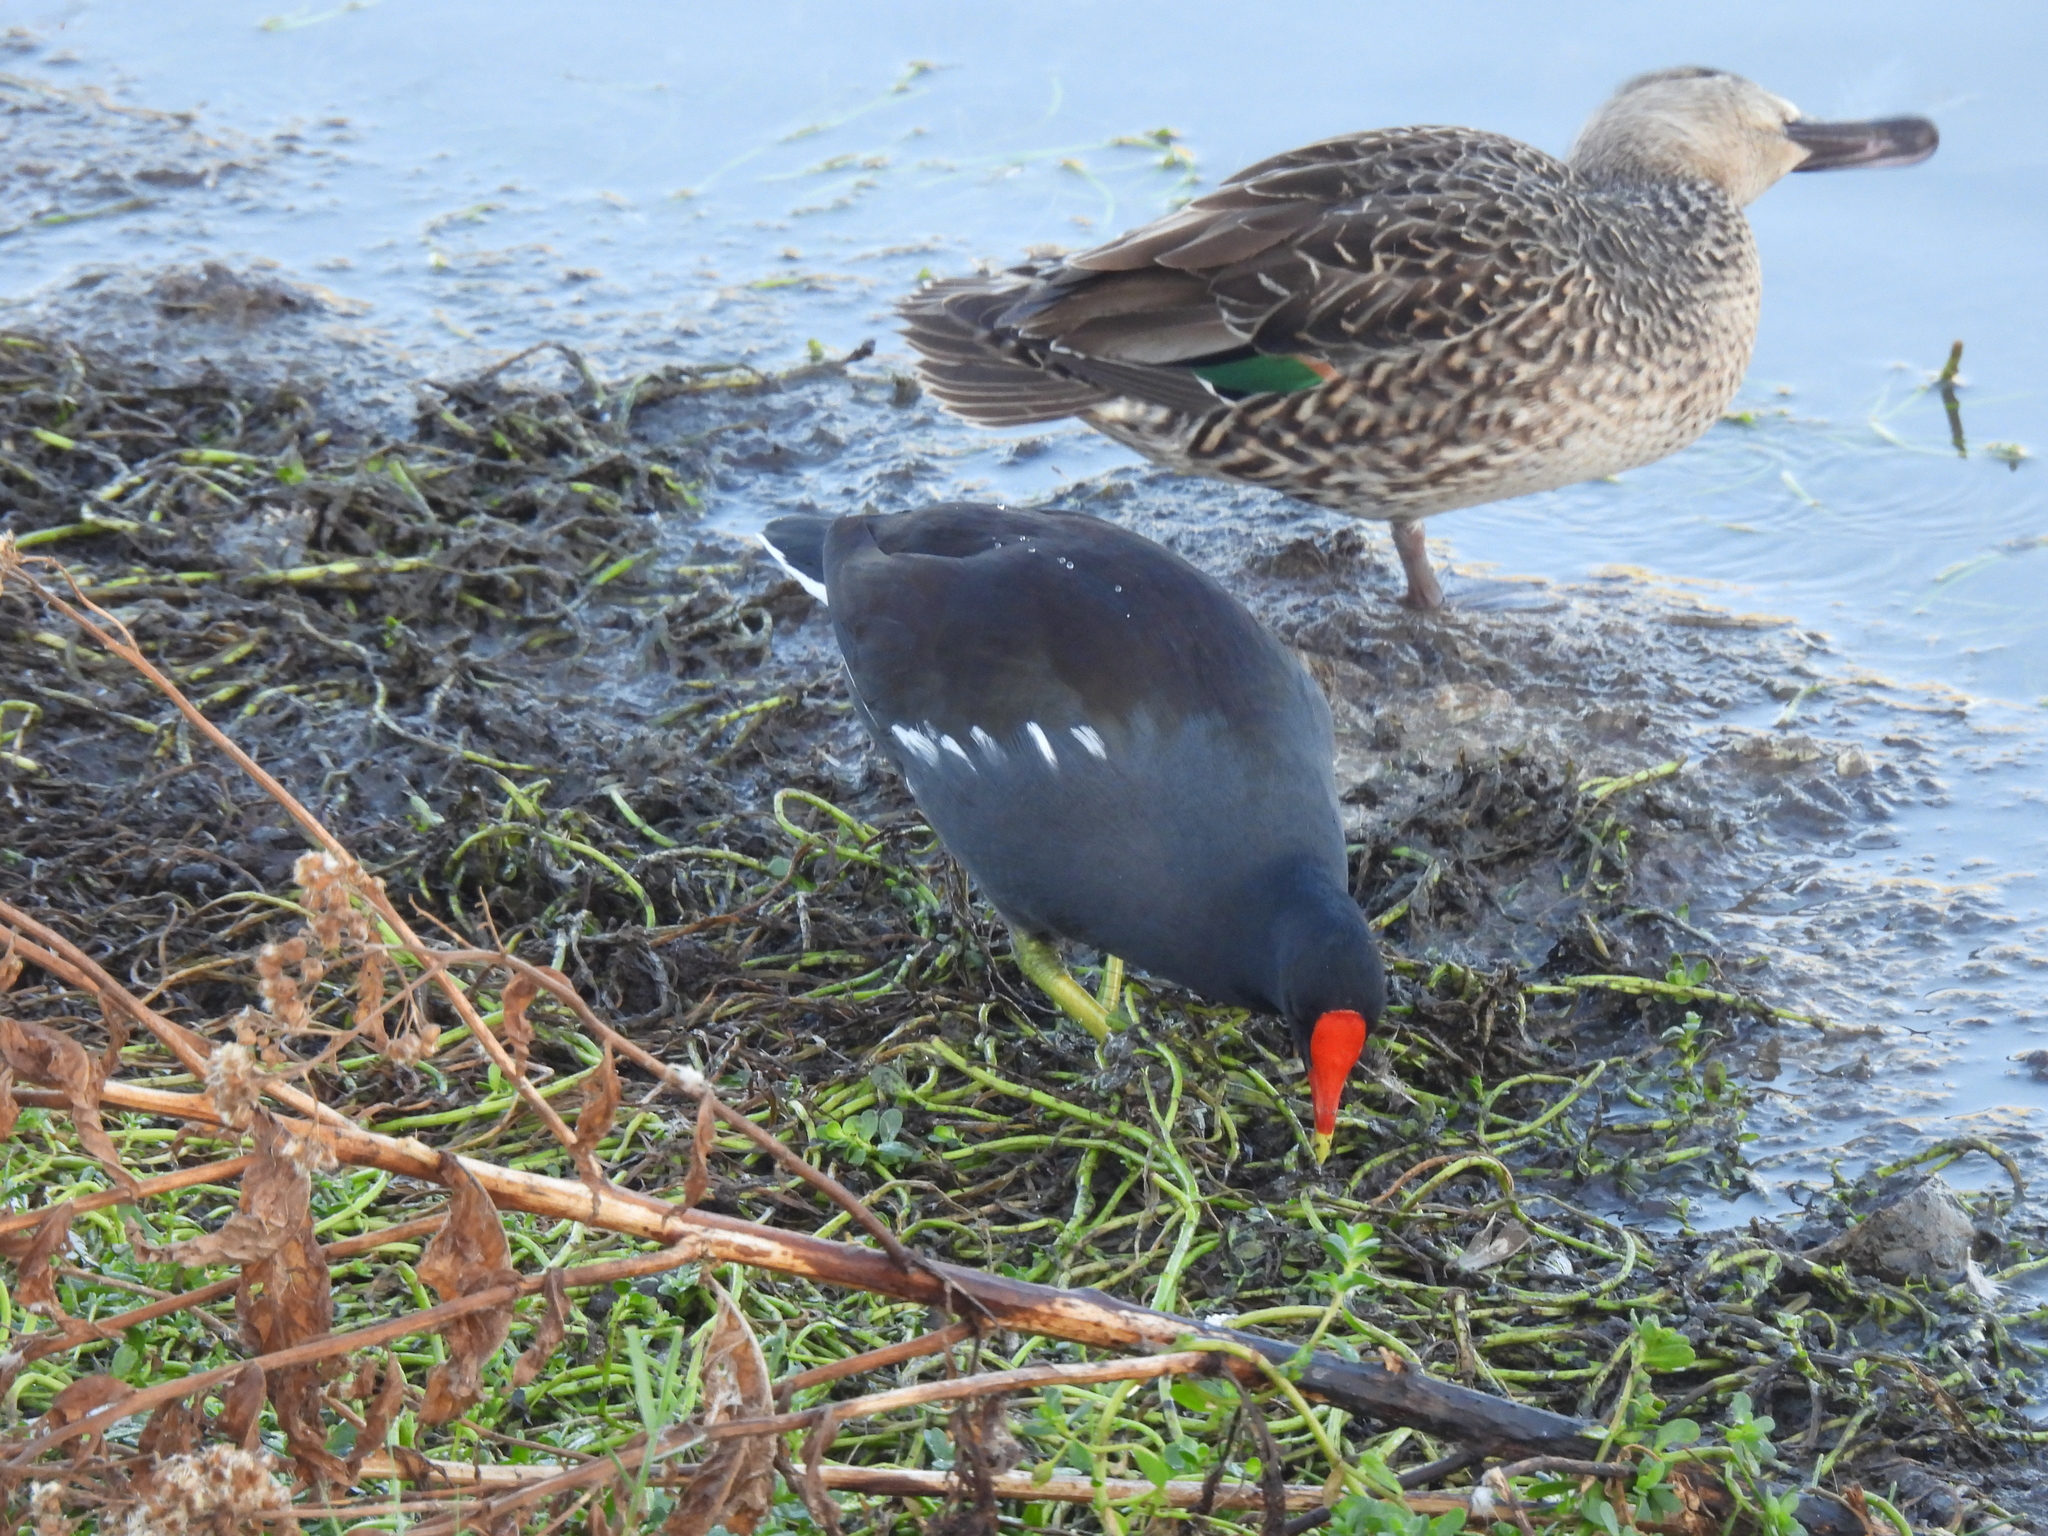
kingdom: Animalia
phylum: Chordata
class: Aves
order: Gruiformes
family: Rallidae
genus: Gallinula
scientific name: Gallinula chloropus
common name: Common moorhen
